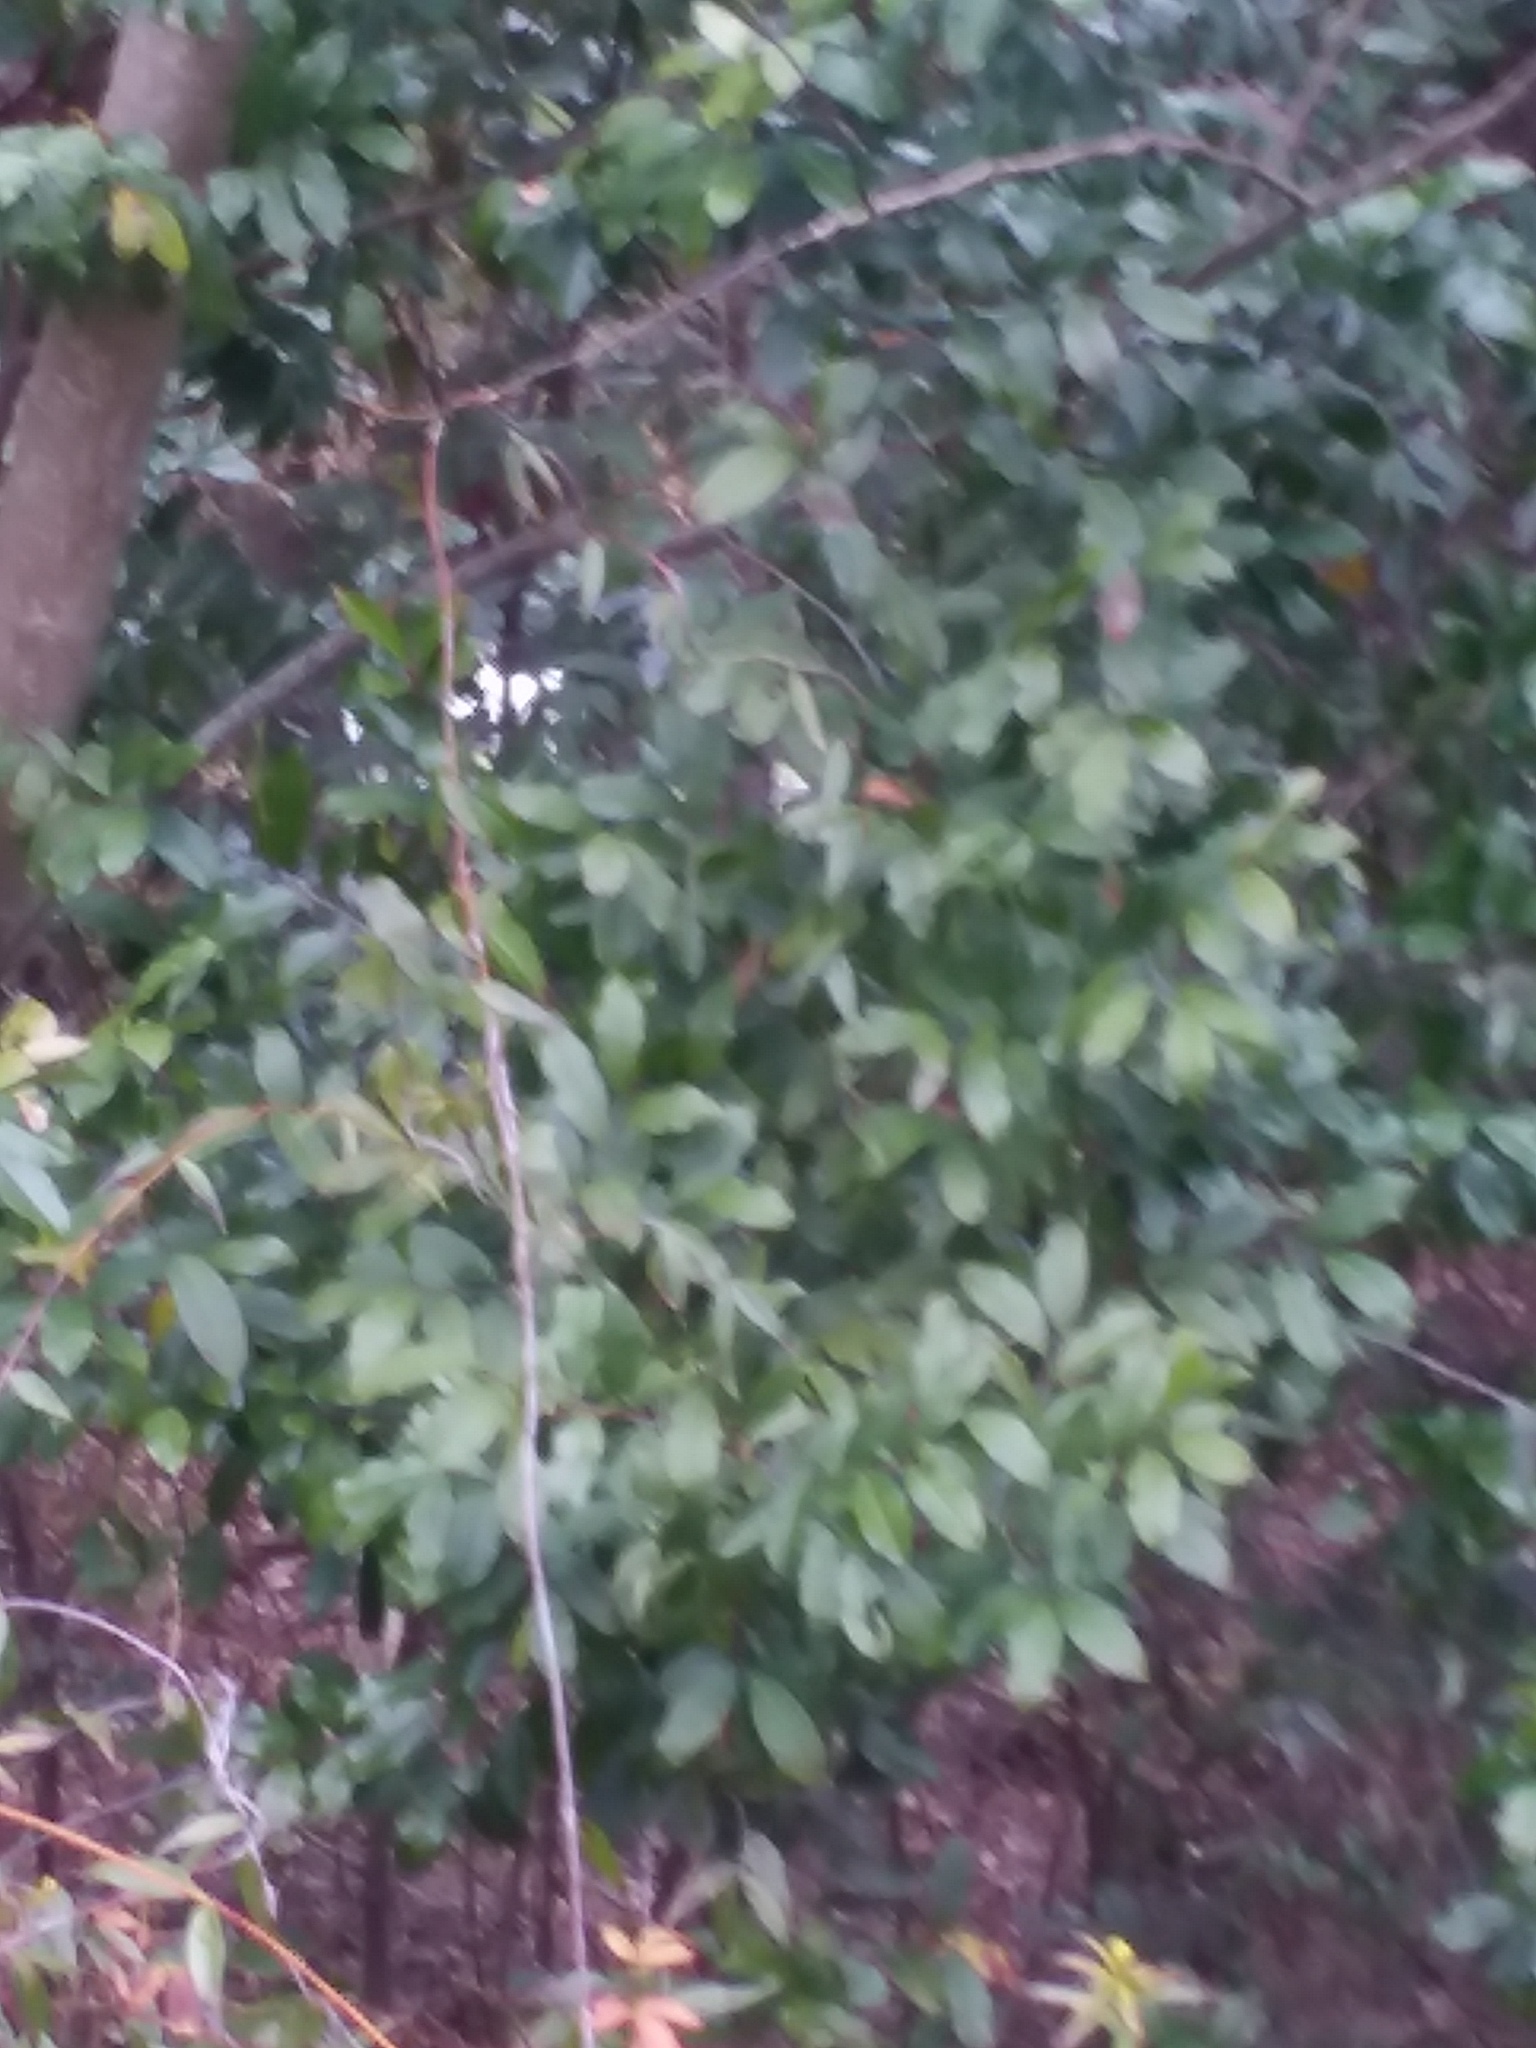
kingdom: Plantae
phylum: Tracheophyta
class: Magnoliopsida
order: Rosales
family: Rosaceae
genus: Prunus
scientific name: Prunus caroliniana
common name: Carolina laurel cherry
